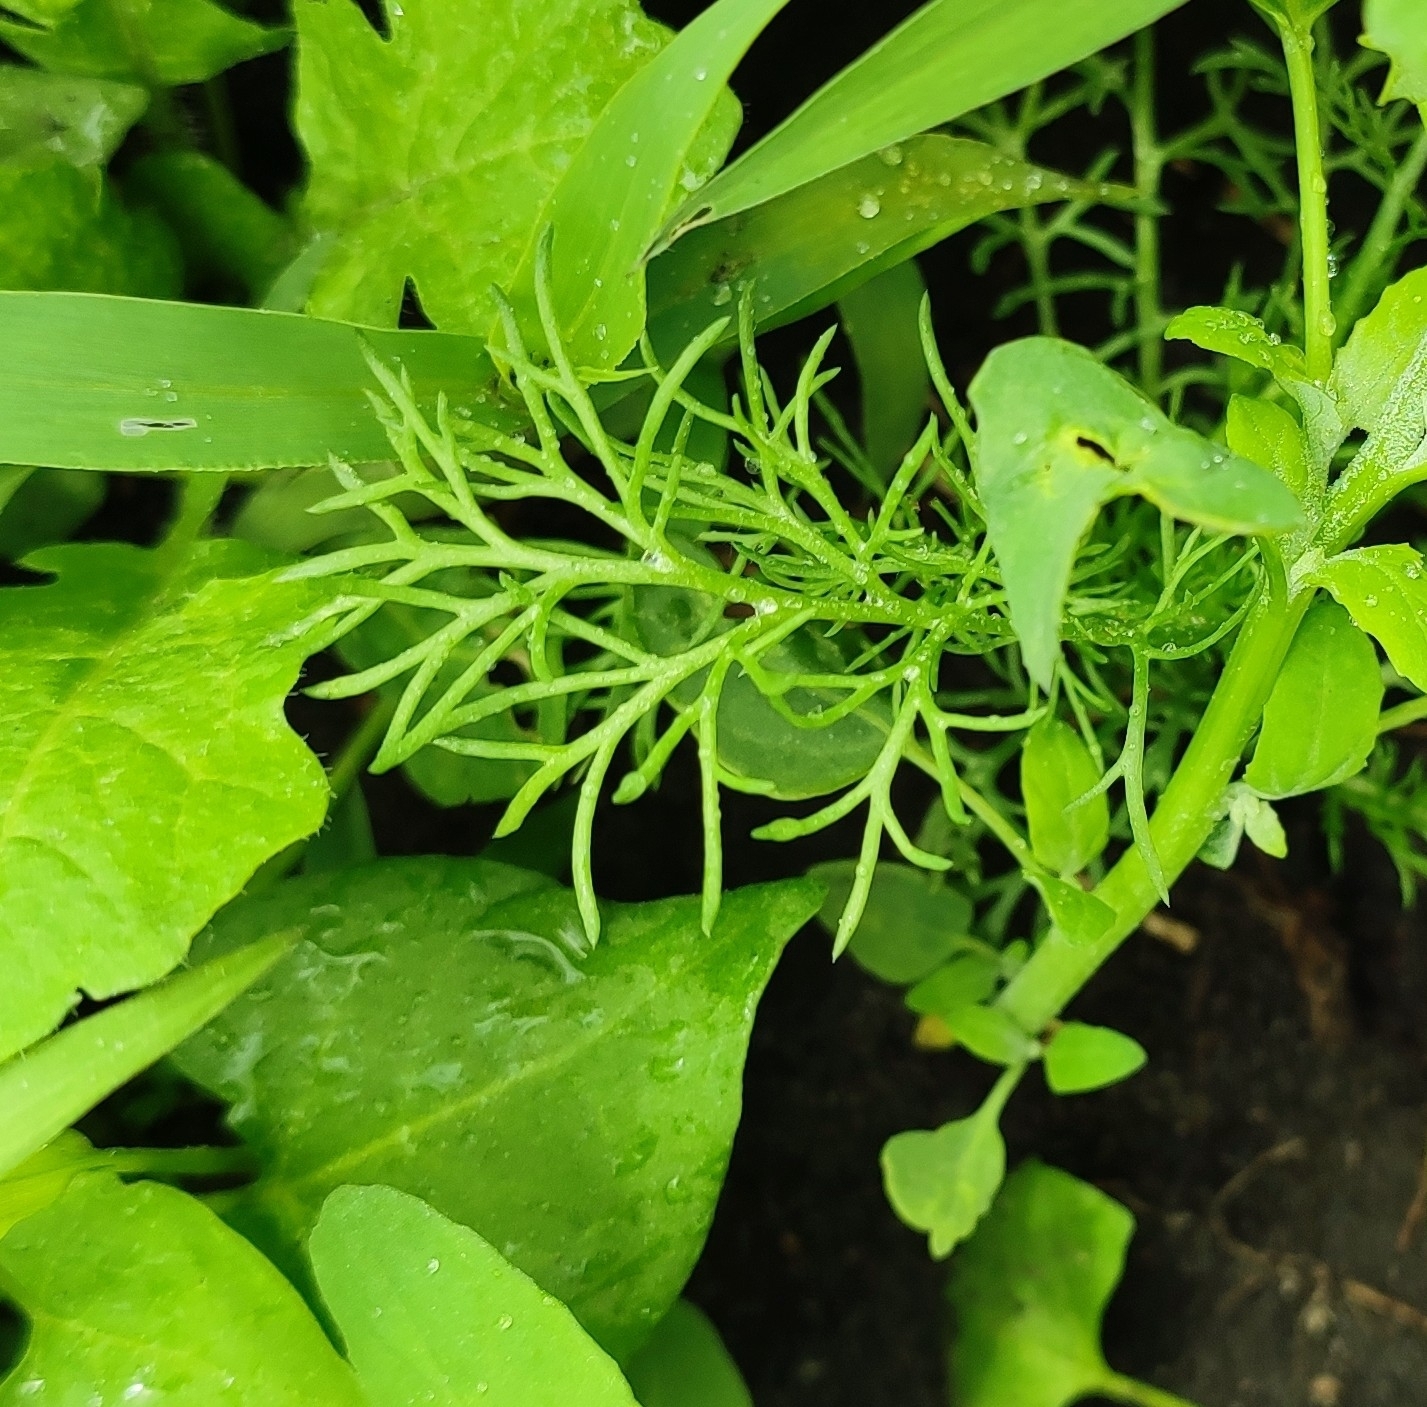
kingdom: Plantae
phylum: Tracheophyta
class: Magnoliopsida
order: Asterales
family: Asteraceae
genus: Tripleurospermum
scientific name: Tripleurospermum inodorum
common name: Scentless mayweed
